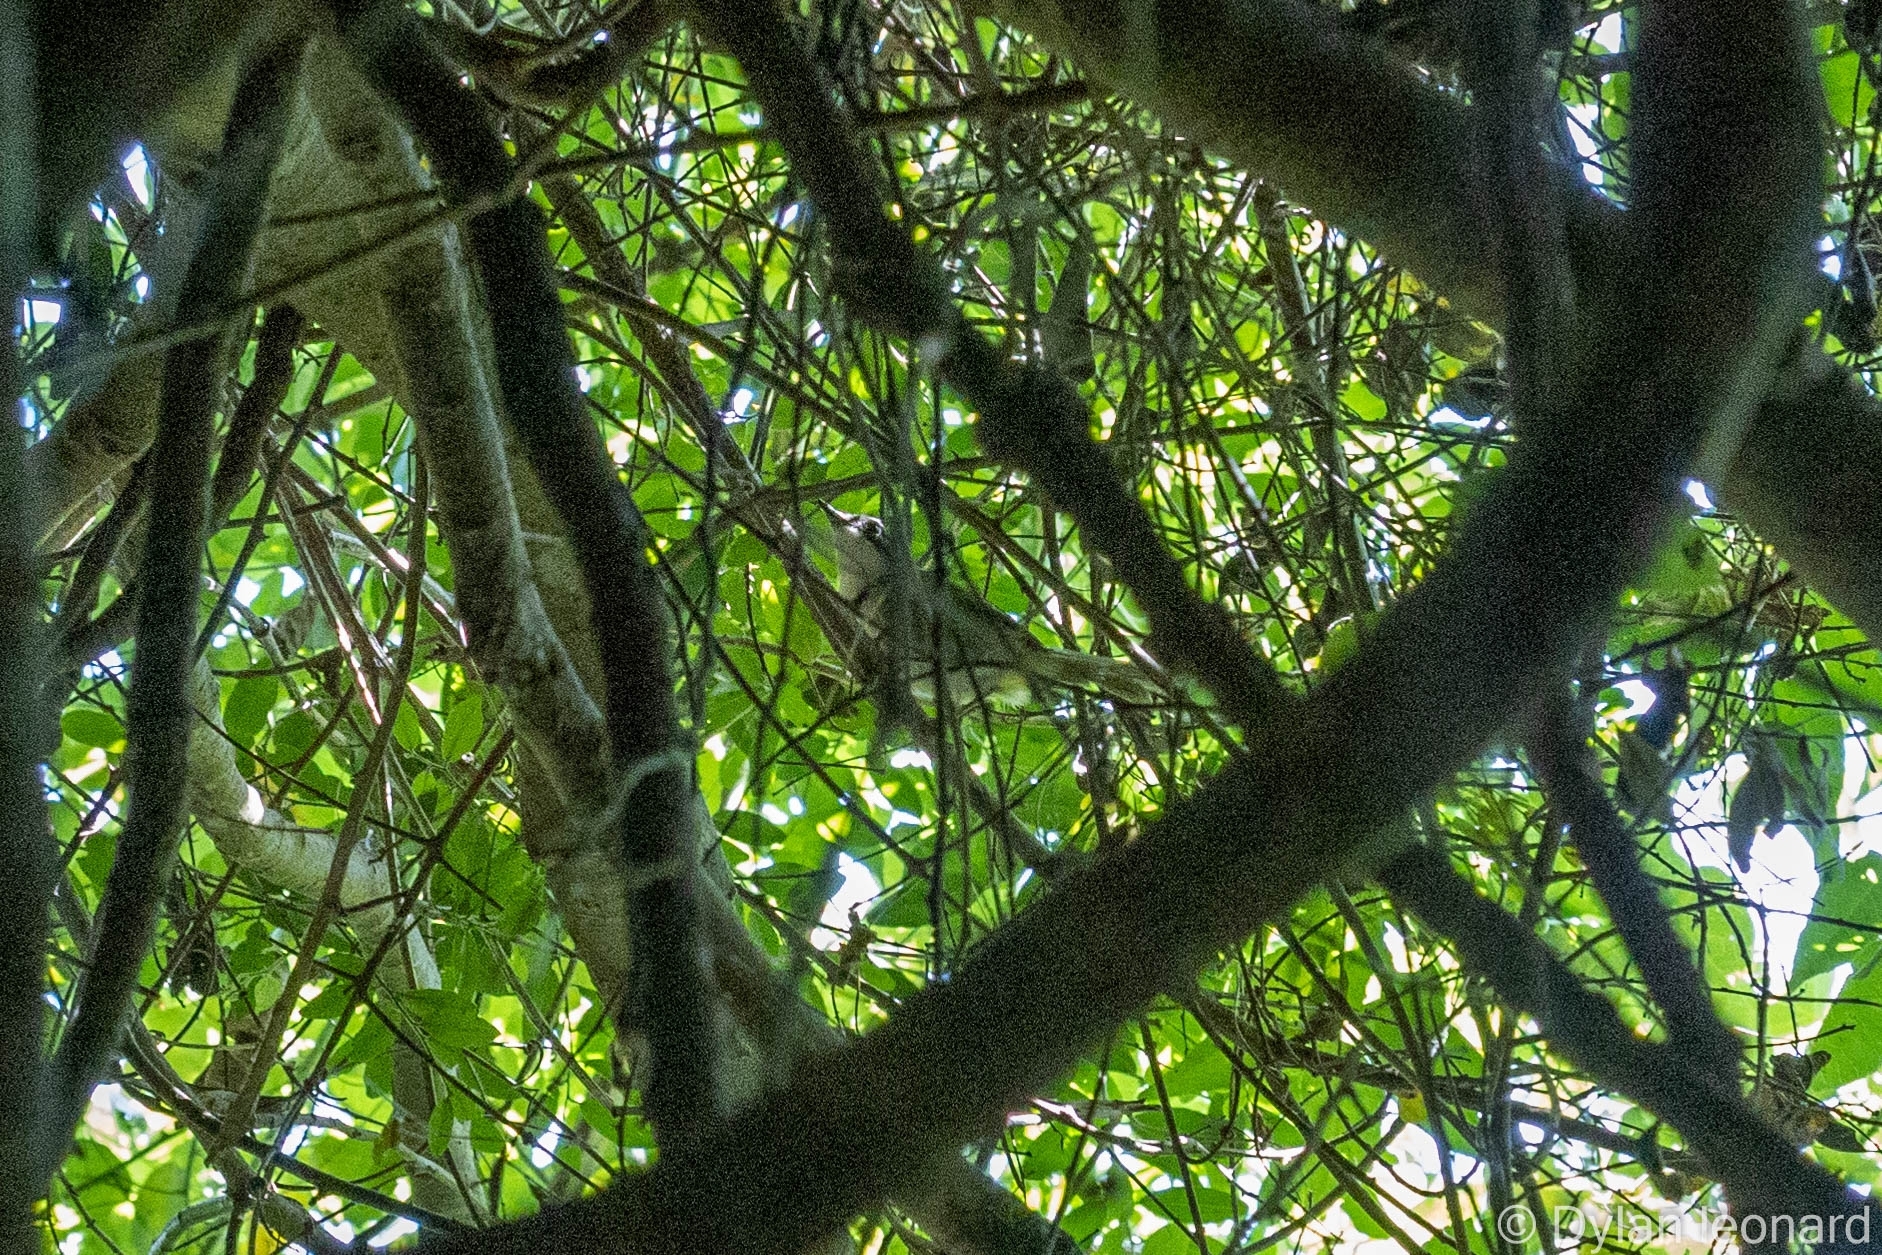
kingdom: Animalia
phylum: Chordata
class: Aves
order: Passeriformes
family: Cisticolidae
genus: Apalis
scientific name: Apalis ruddi
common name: Rudd's apalis
